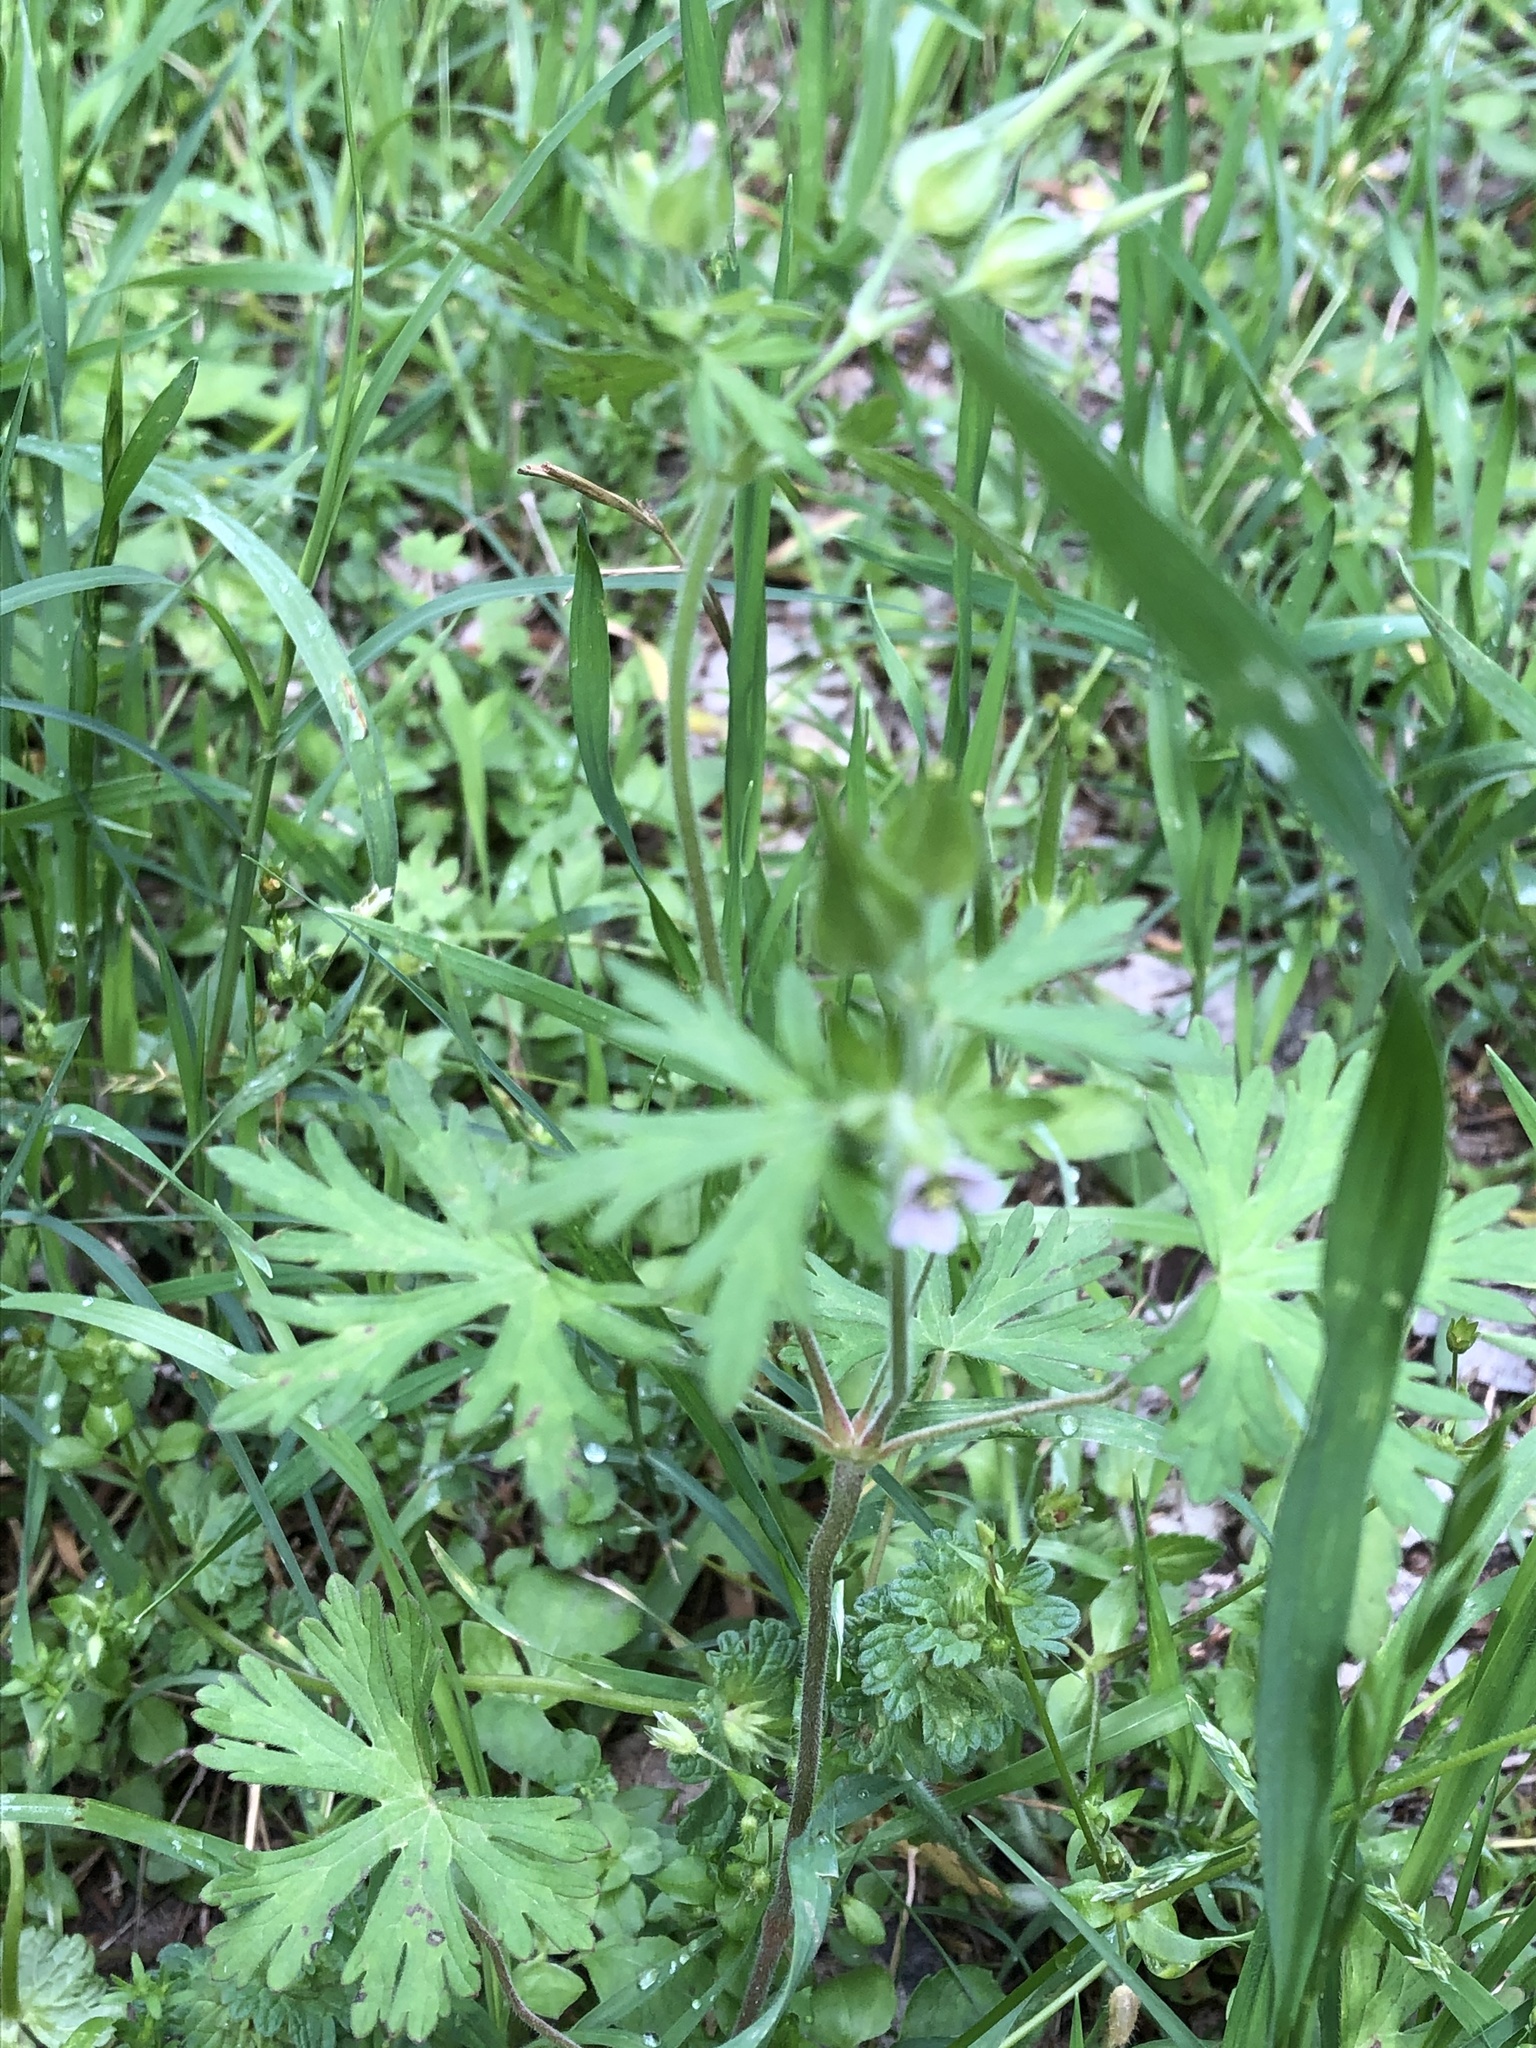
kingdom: Plantae
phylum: Tracheophyta
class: Magnoliopsida
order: Geraniales
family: Geraniaceae
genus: Geranium
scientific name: Geranium carolinianum
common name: Carolina crane's-bill
